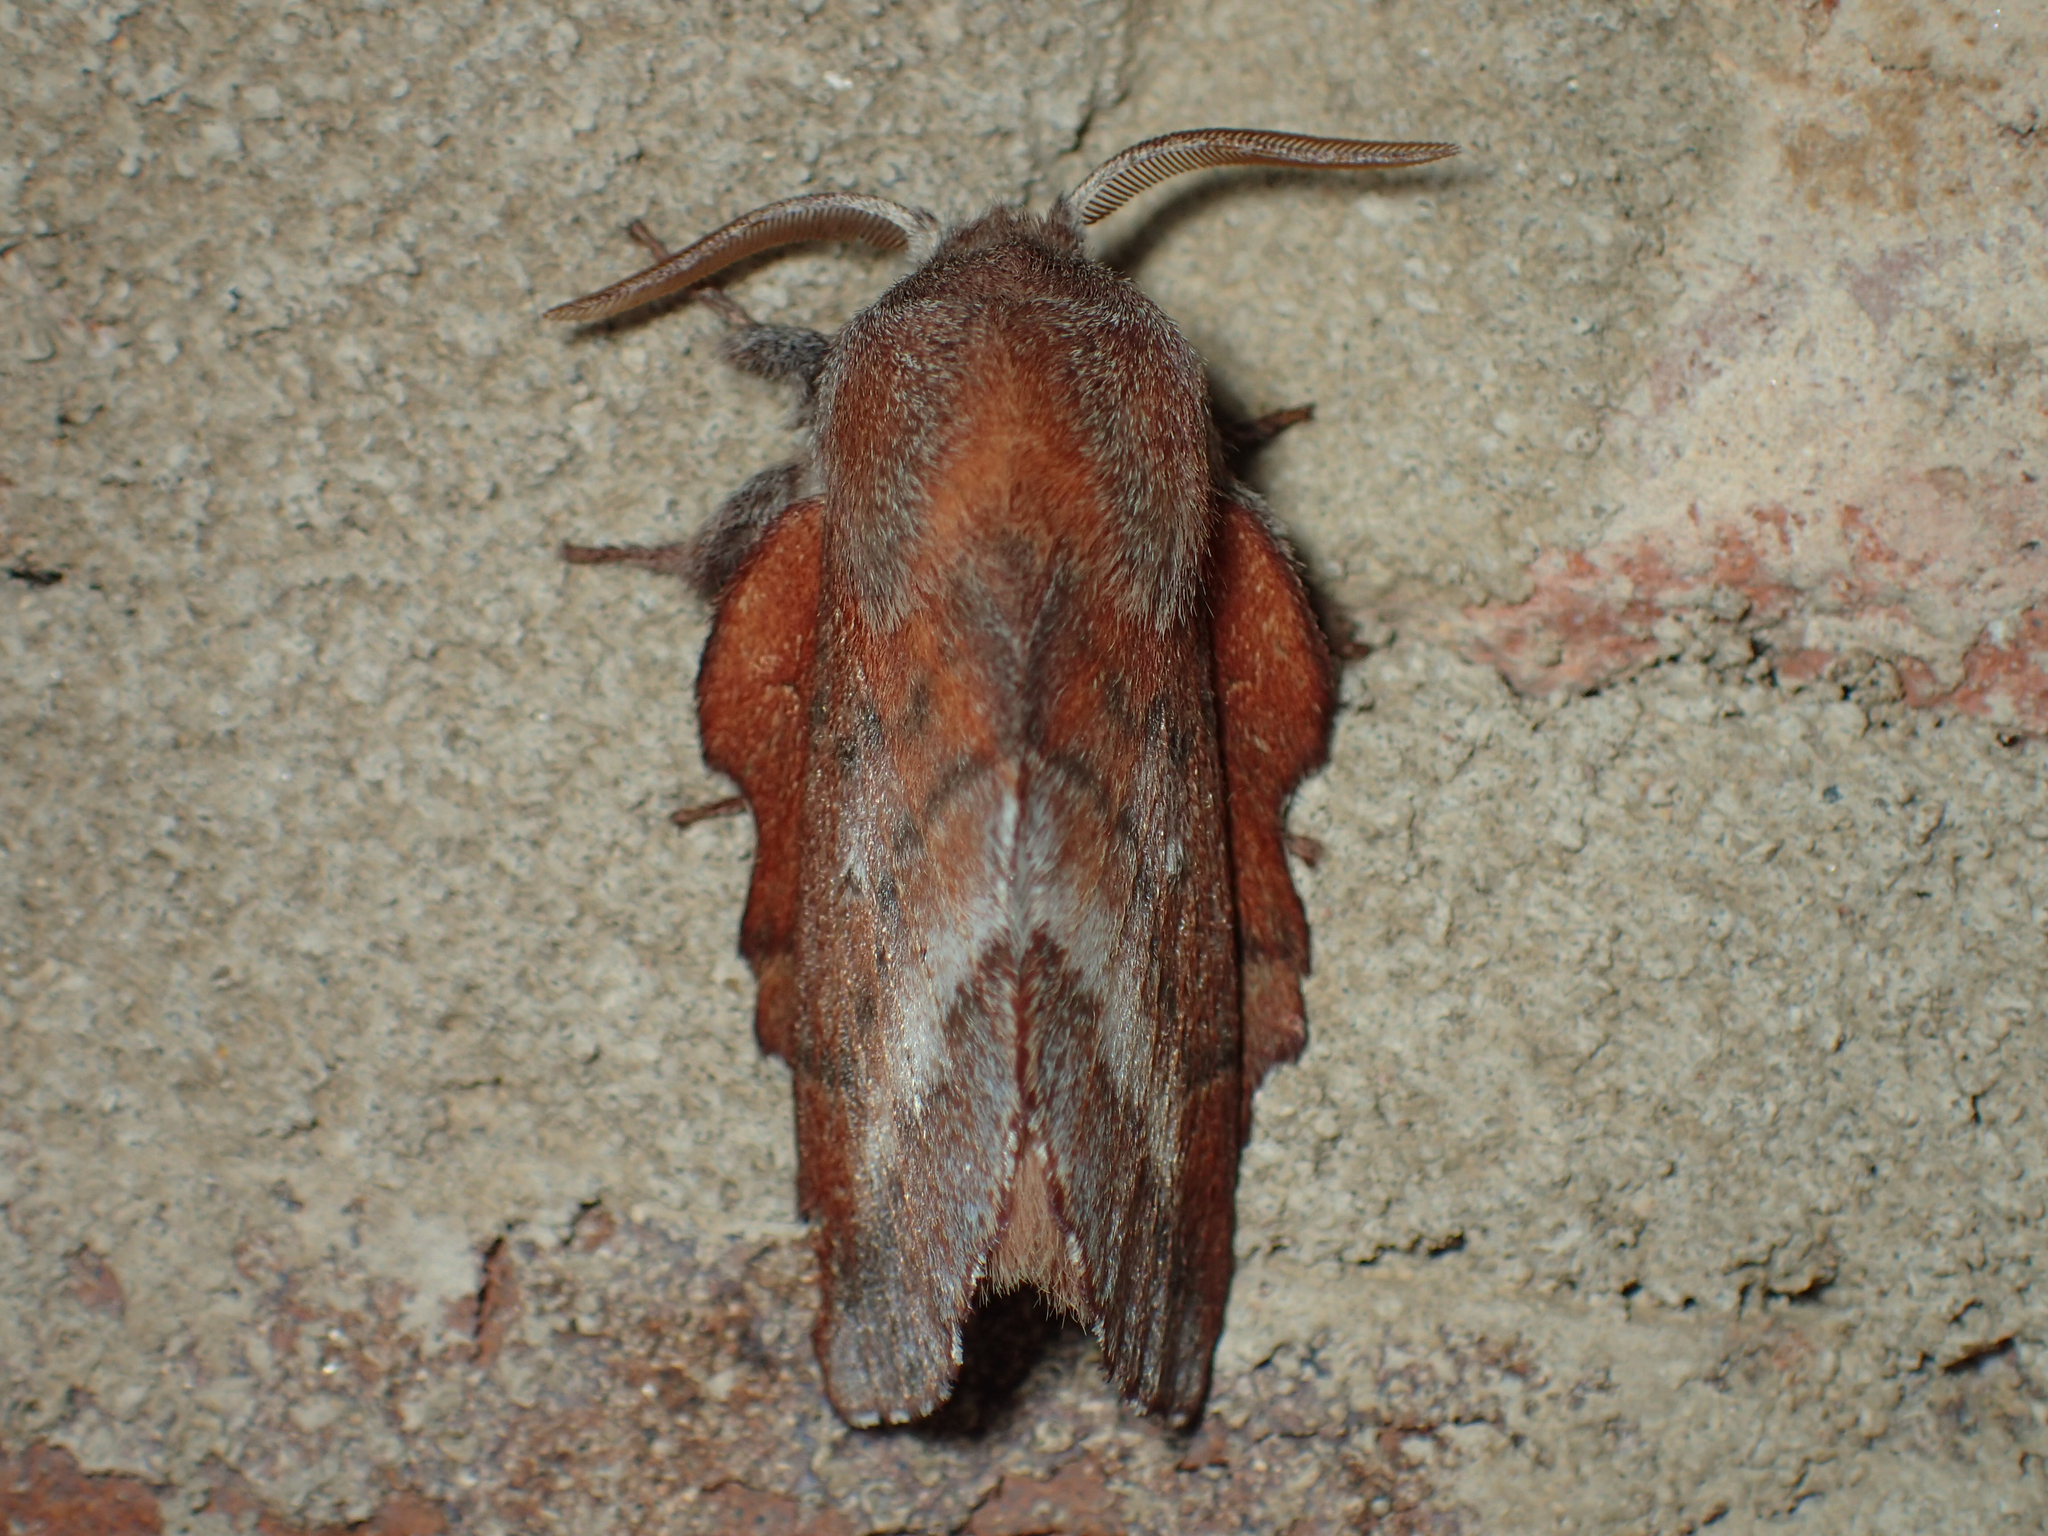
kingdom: Animalia
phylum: Arthropoda
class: Insecta
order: Lepidoptera
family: Lasiocampidae
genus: Phyllodesma
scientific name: Phyllodesma americana
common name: American lappet moth
